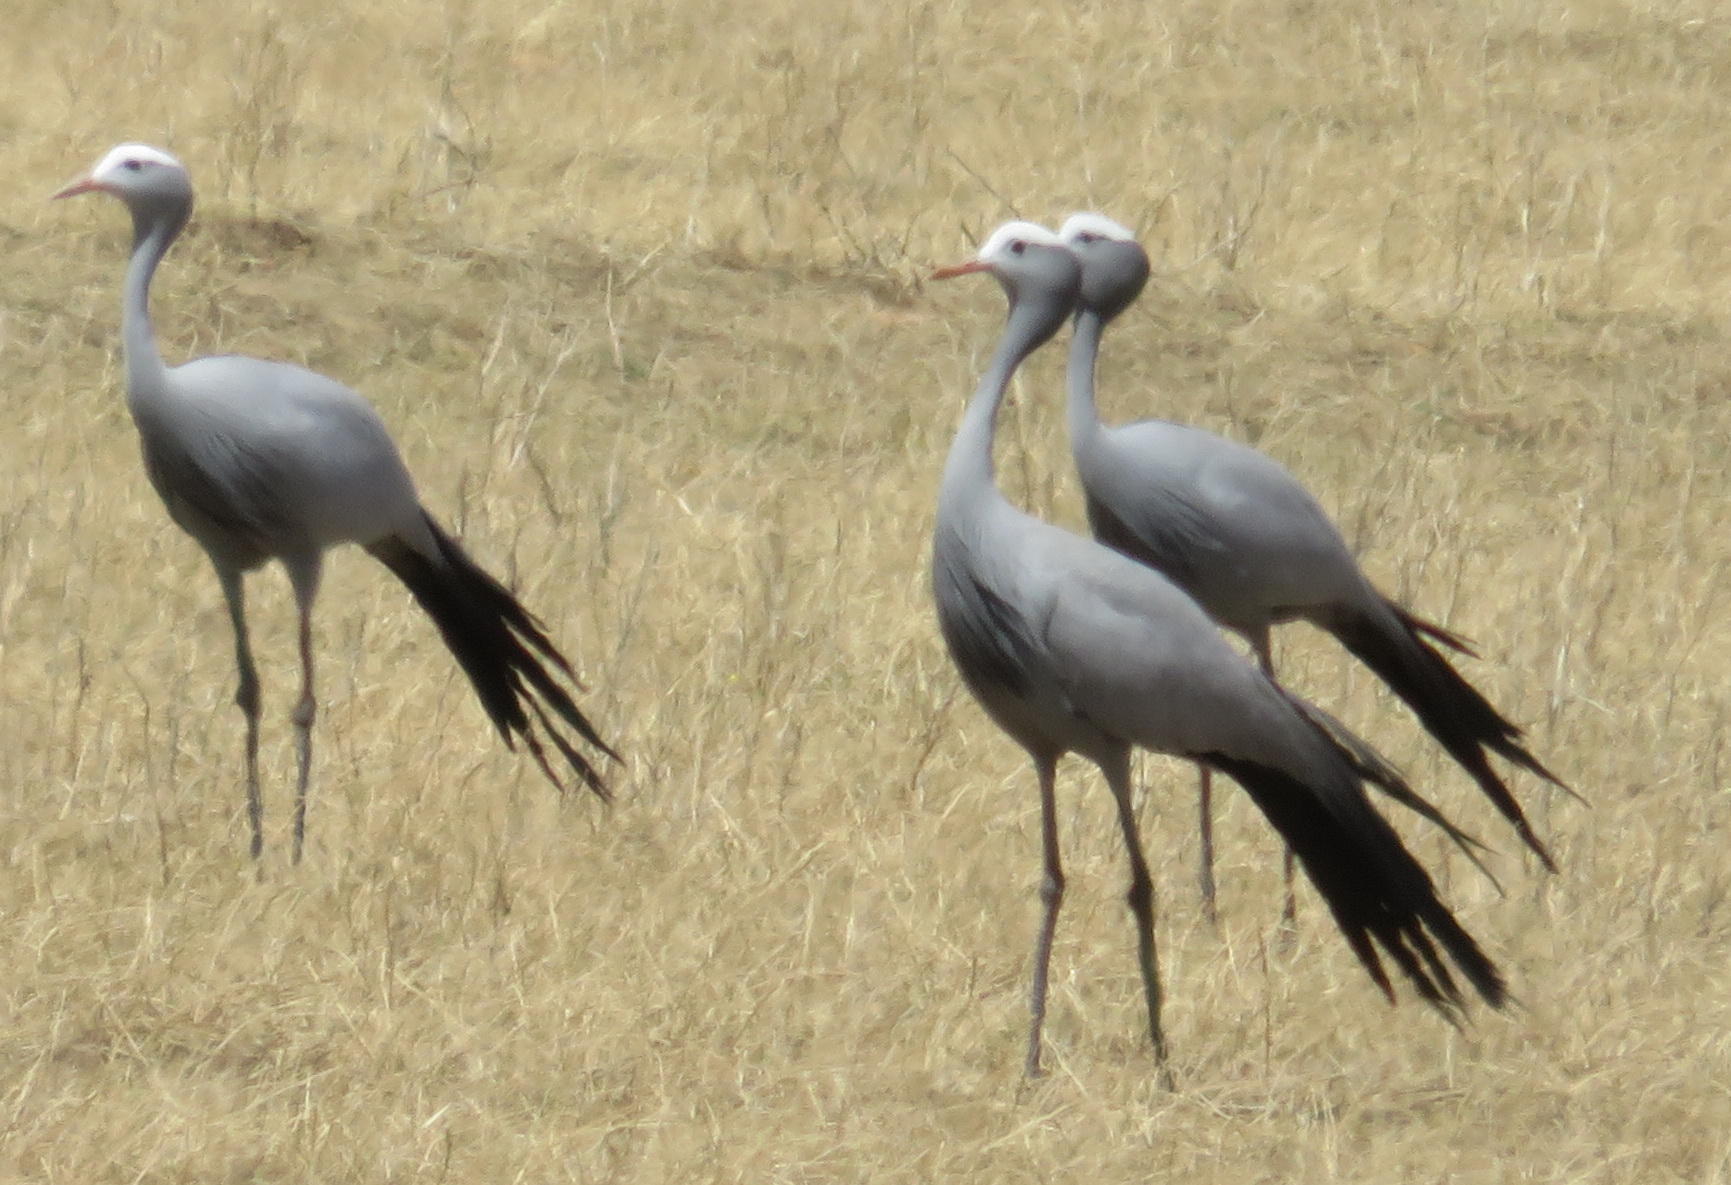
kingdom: Animalia
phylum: Chordata
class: Aves
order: Gruiformes
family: Gruidae
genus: Anthropoides
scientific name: Anthropoides paradiseus
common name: Blue crane
